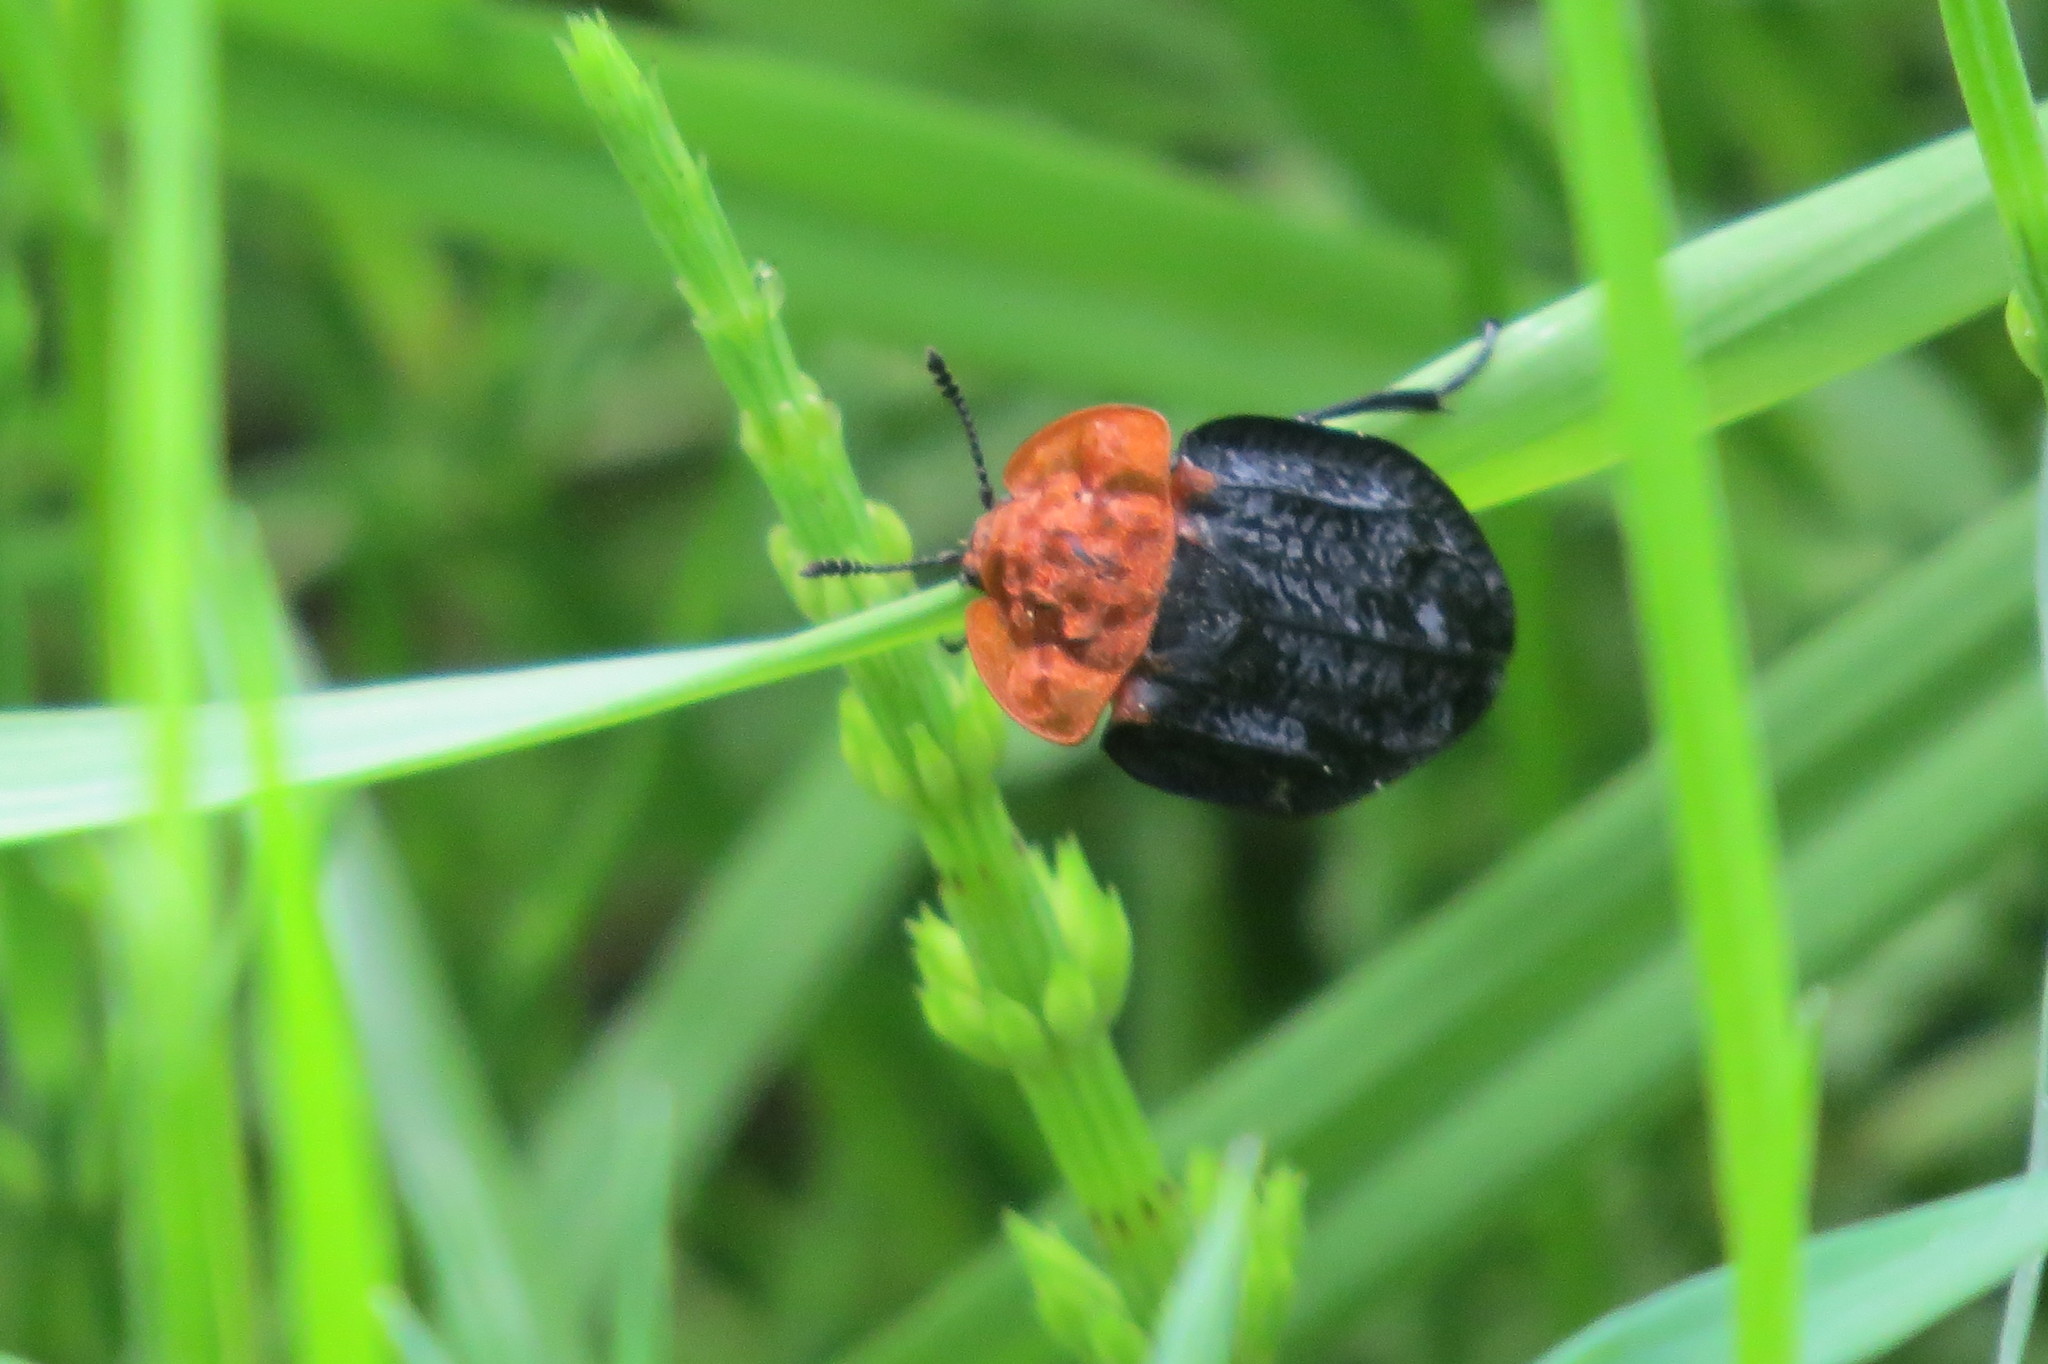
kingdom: Animalia
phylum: Arthropoda
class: Insecta
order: Coleoptera
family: Staphylinidae
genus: Oiceoptoma
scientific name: Oiceoptoma thoracicum
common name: Red-breasted carrion beetle
